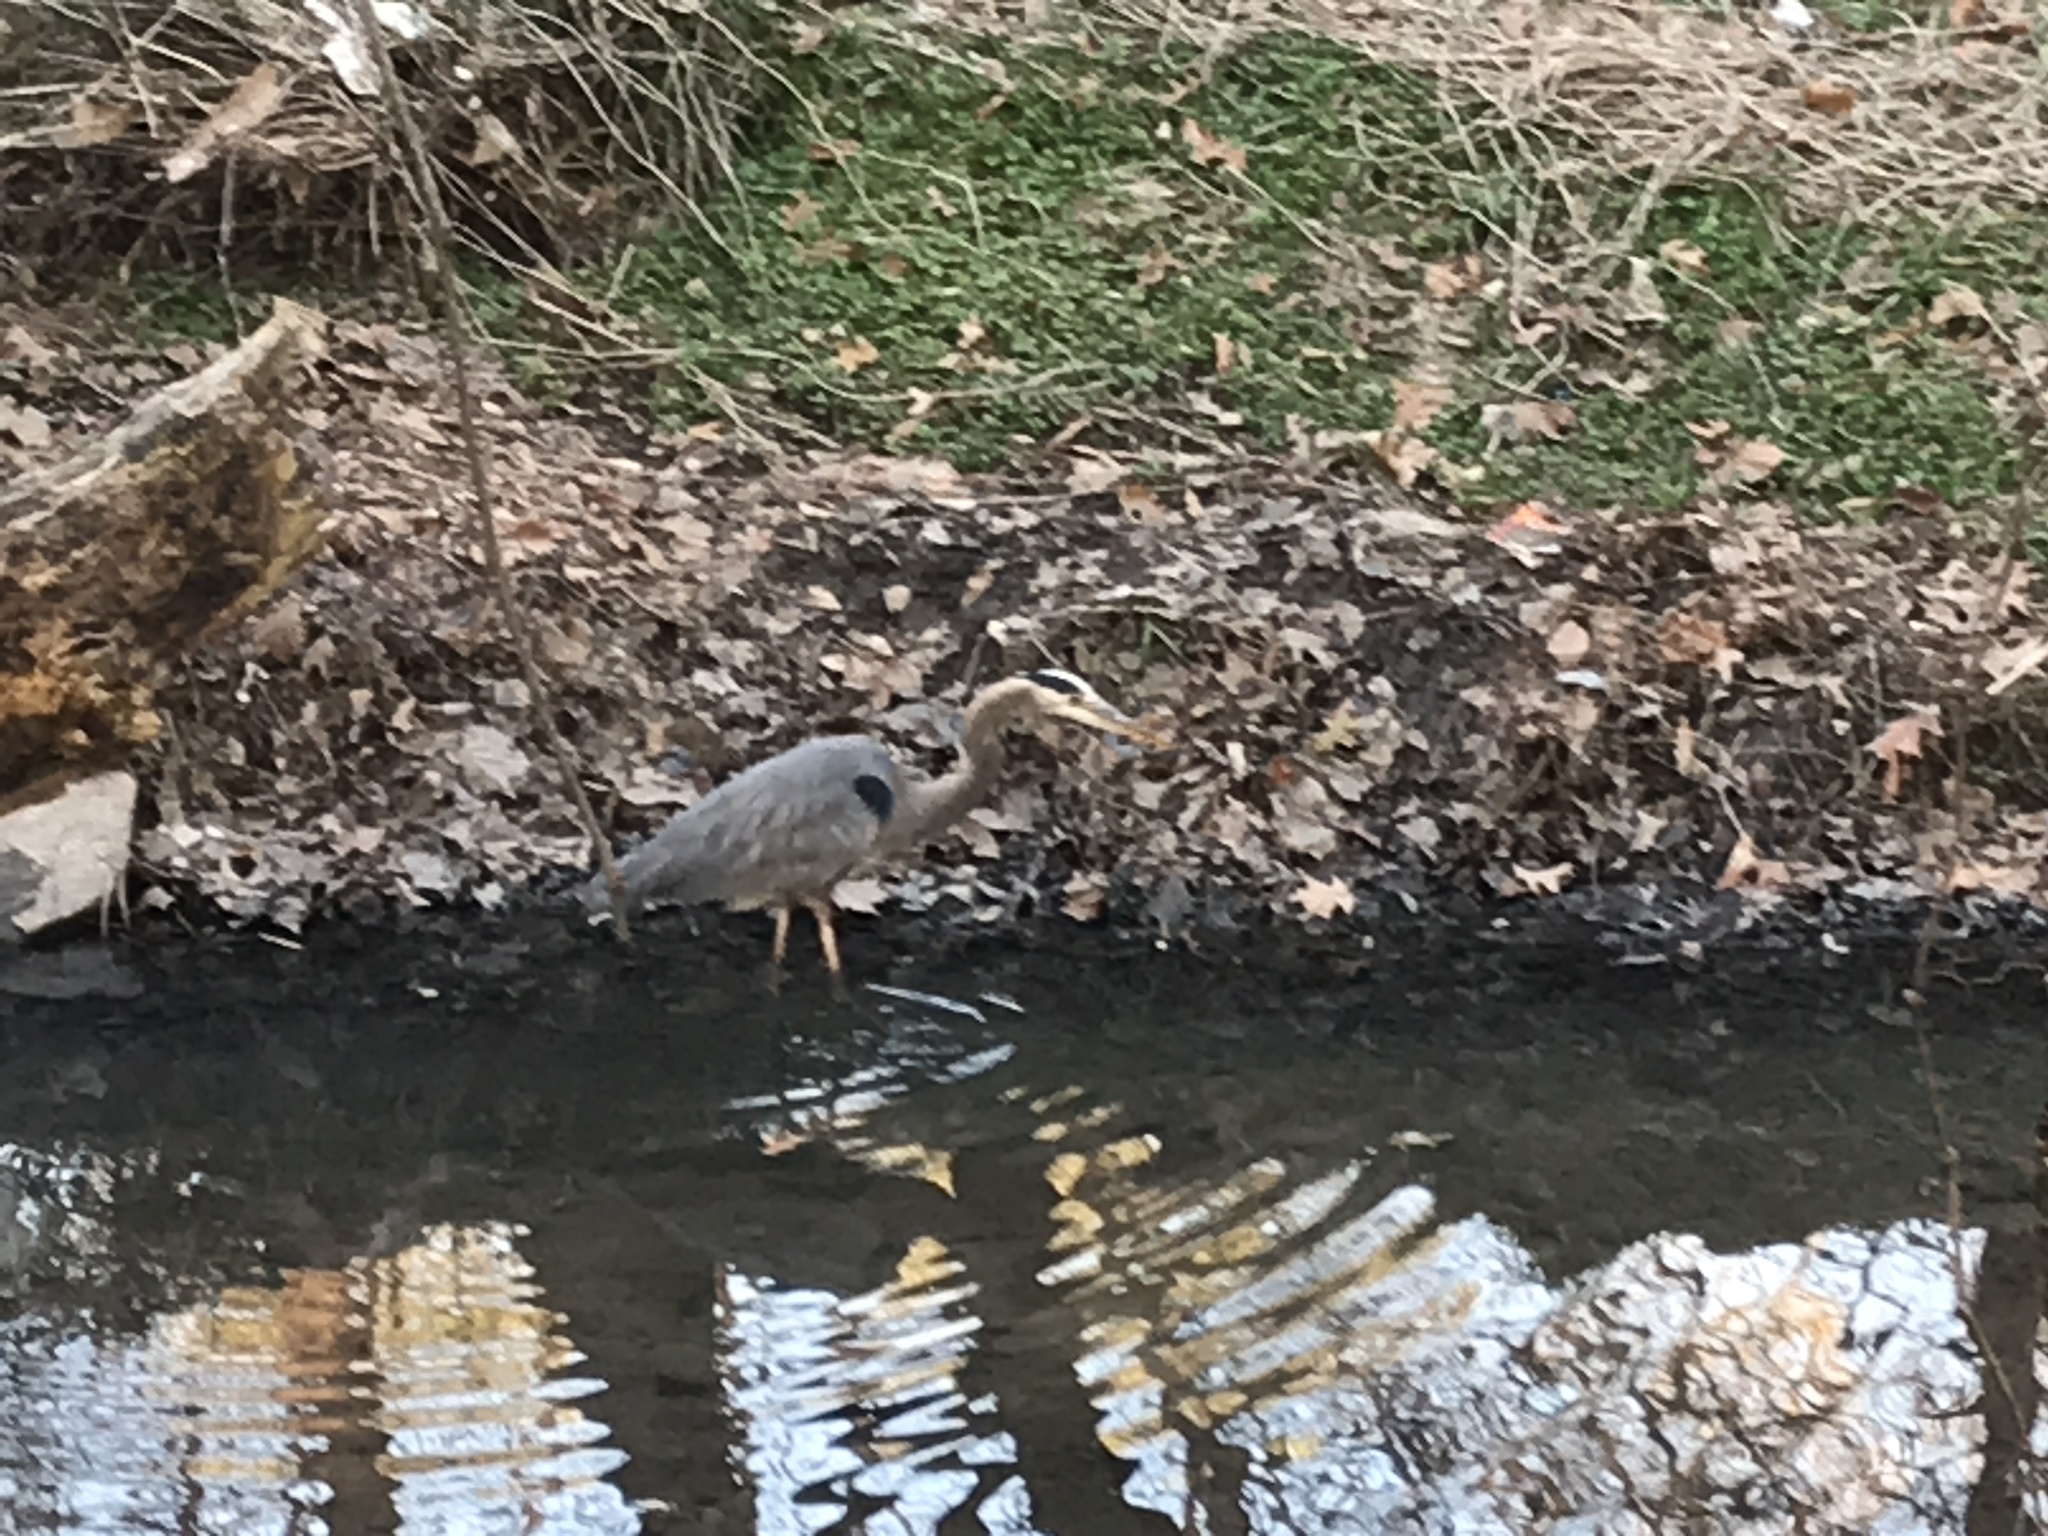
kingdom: Animalia
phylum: Chordata
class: Aves
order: Pelecaniformes
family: Ardeidae
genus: Ardea
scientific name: Ardea herodias
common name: Great blue heron
